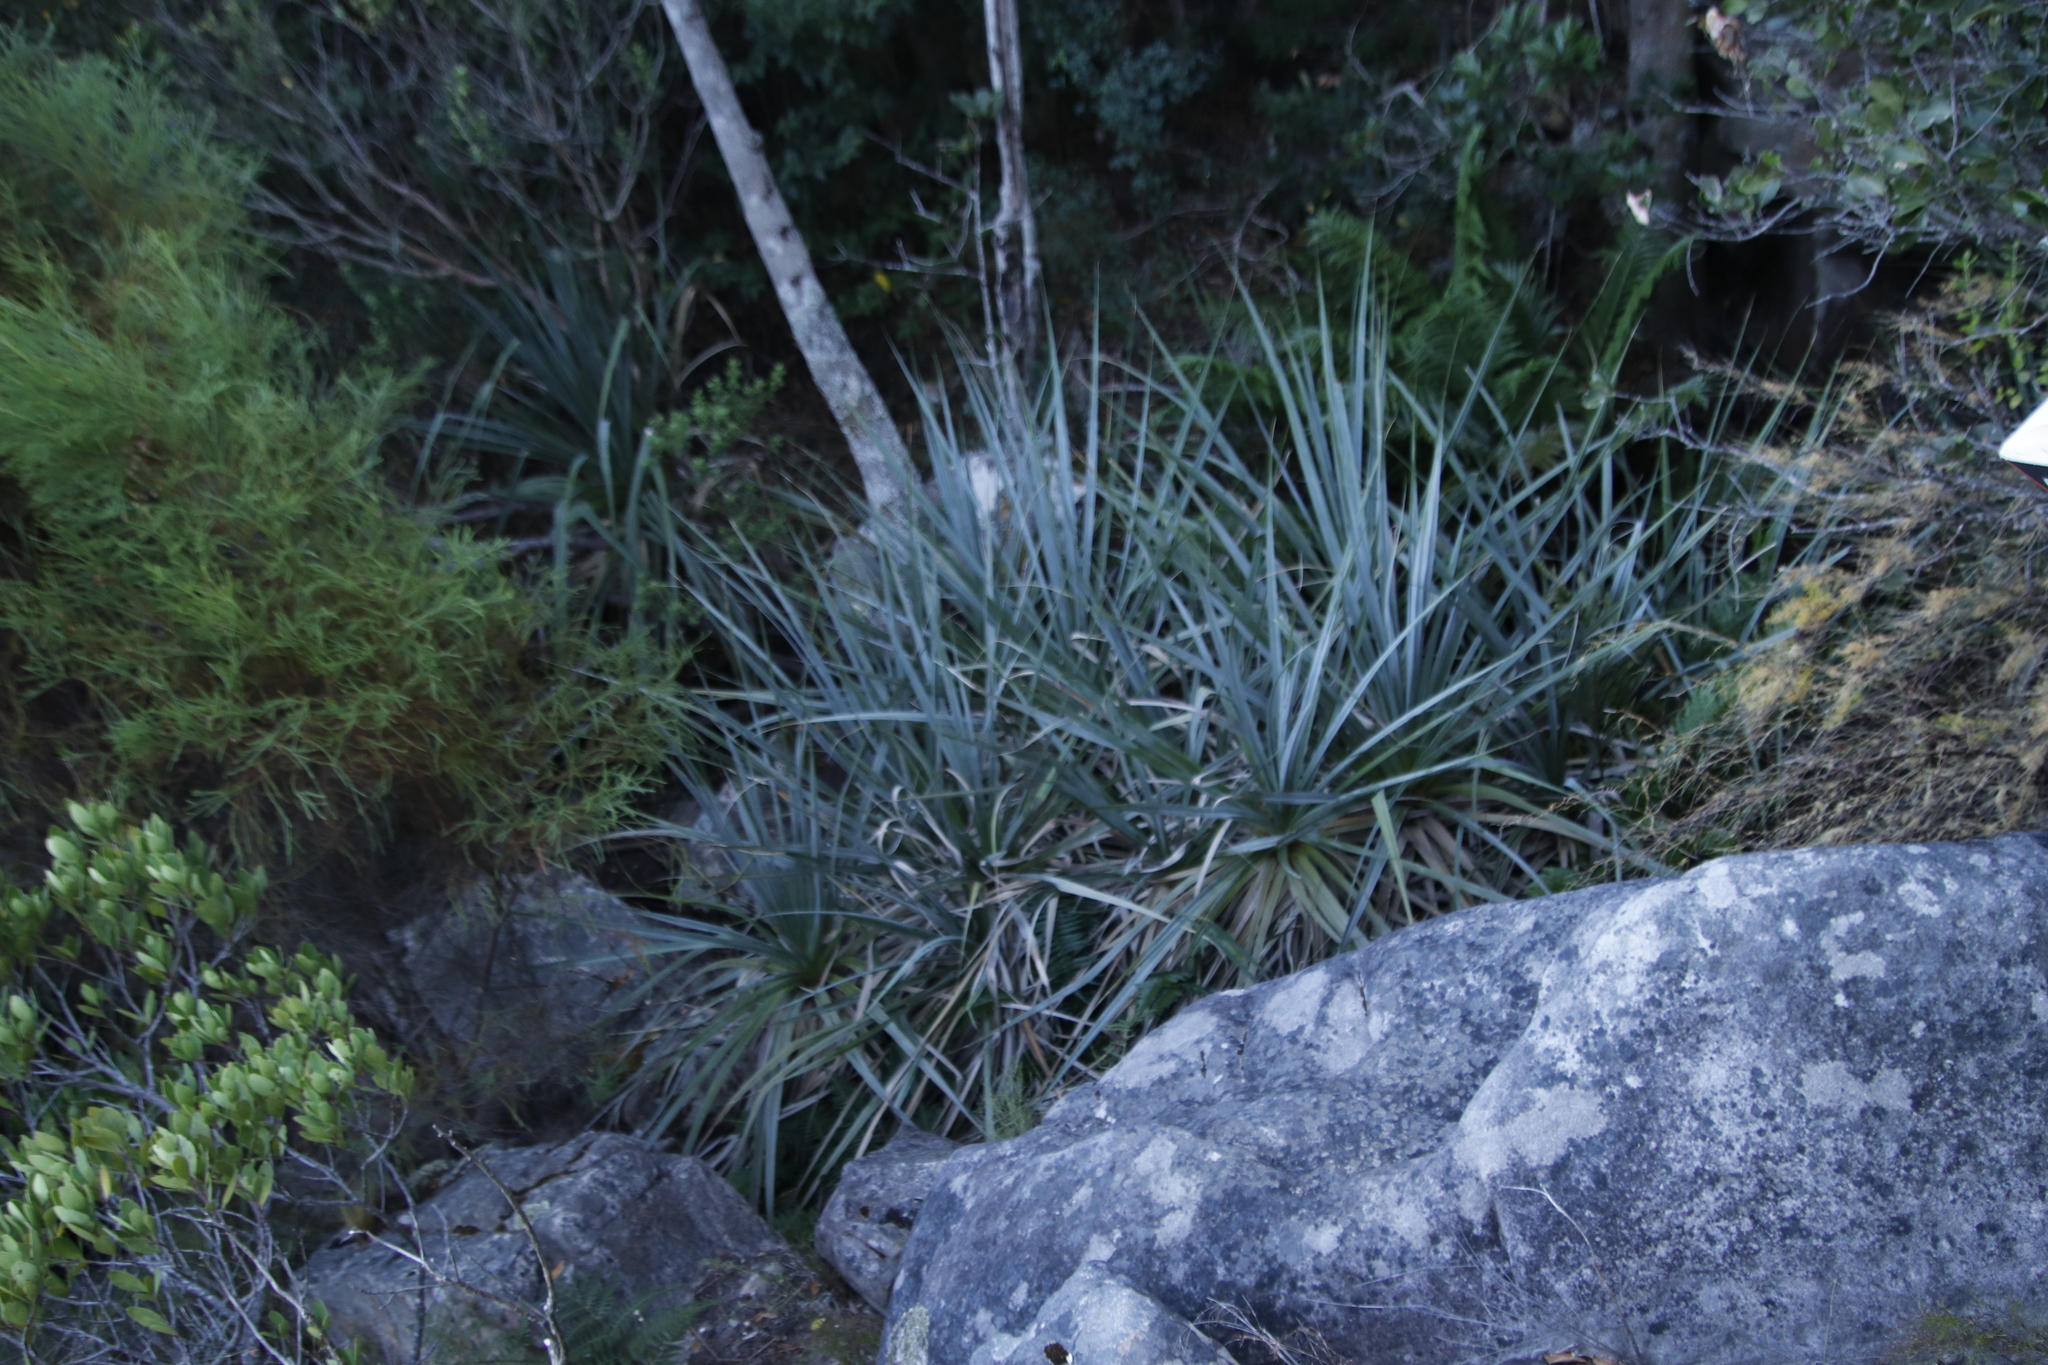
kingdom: Plantae
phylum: Tracheophyta
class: Liliopsida
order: Poales
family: Thurniaceae
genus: Prionium
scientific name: Prionium serratum
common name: Palmiet
